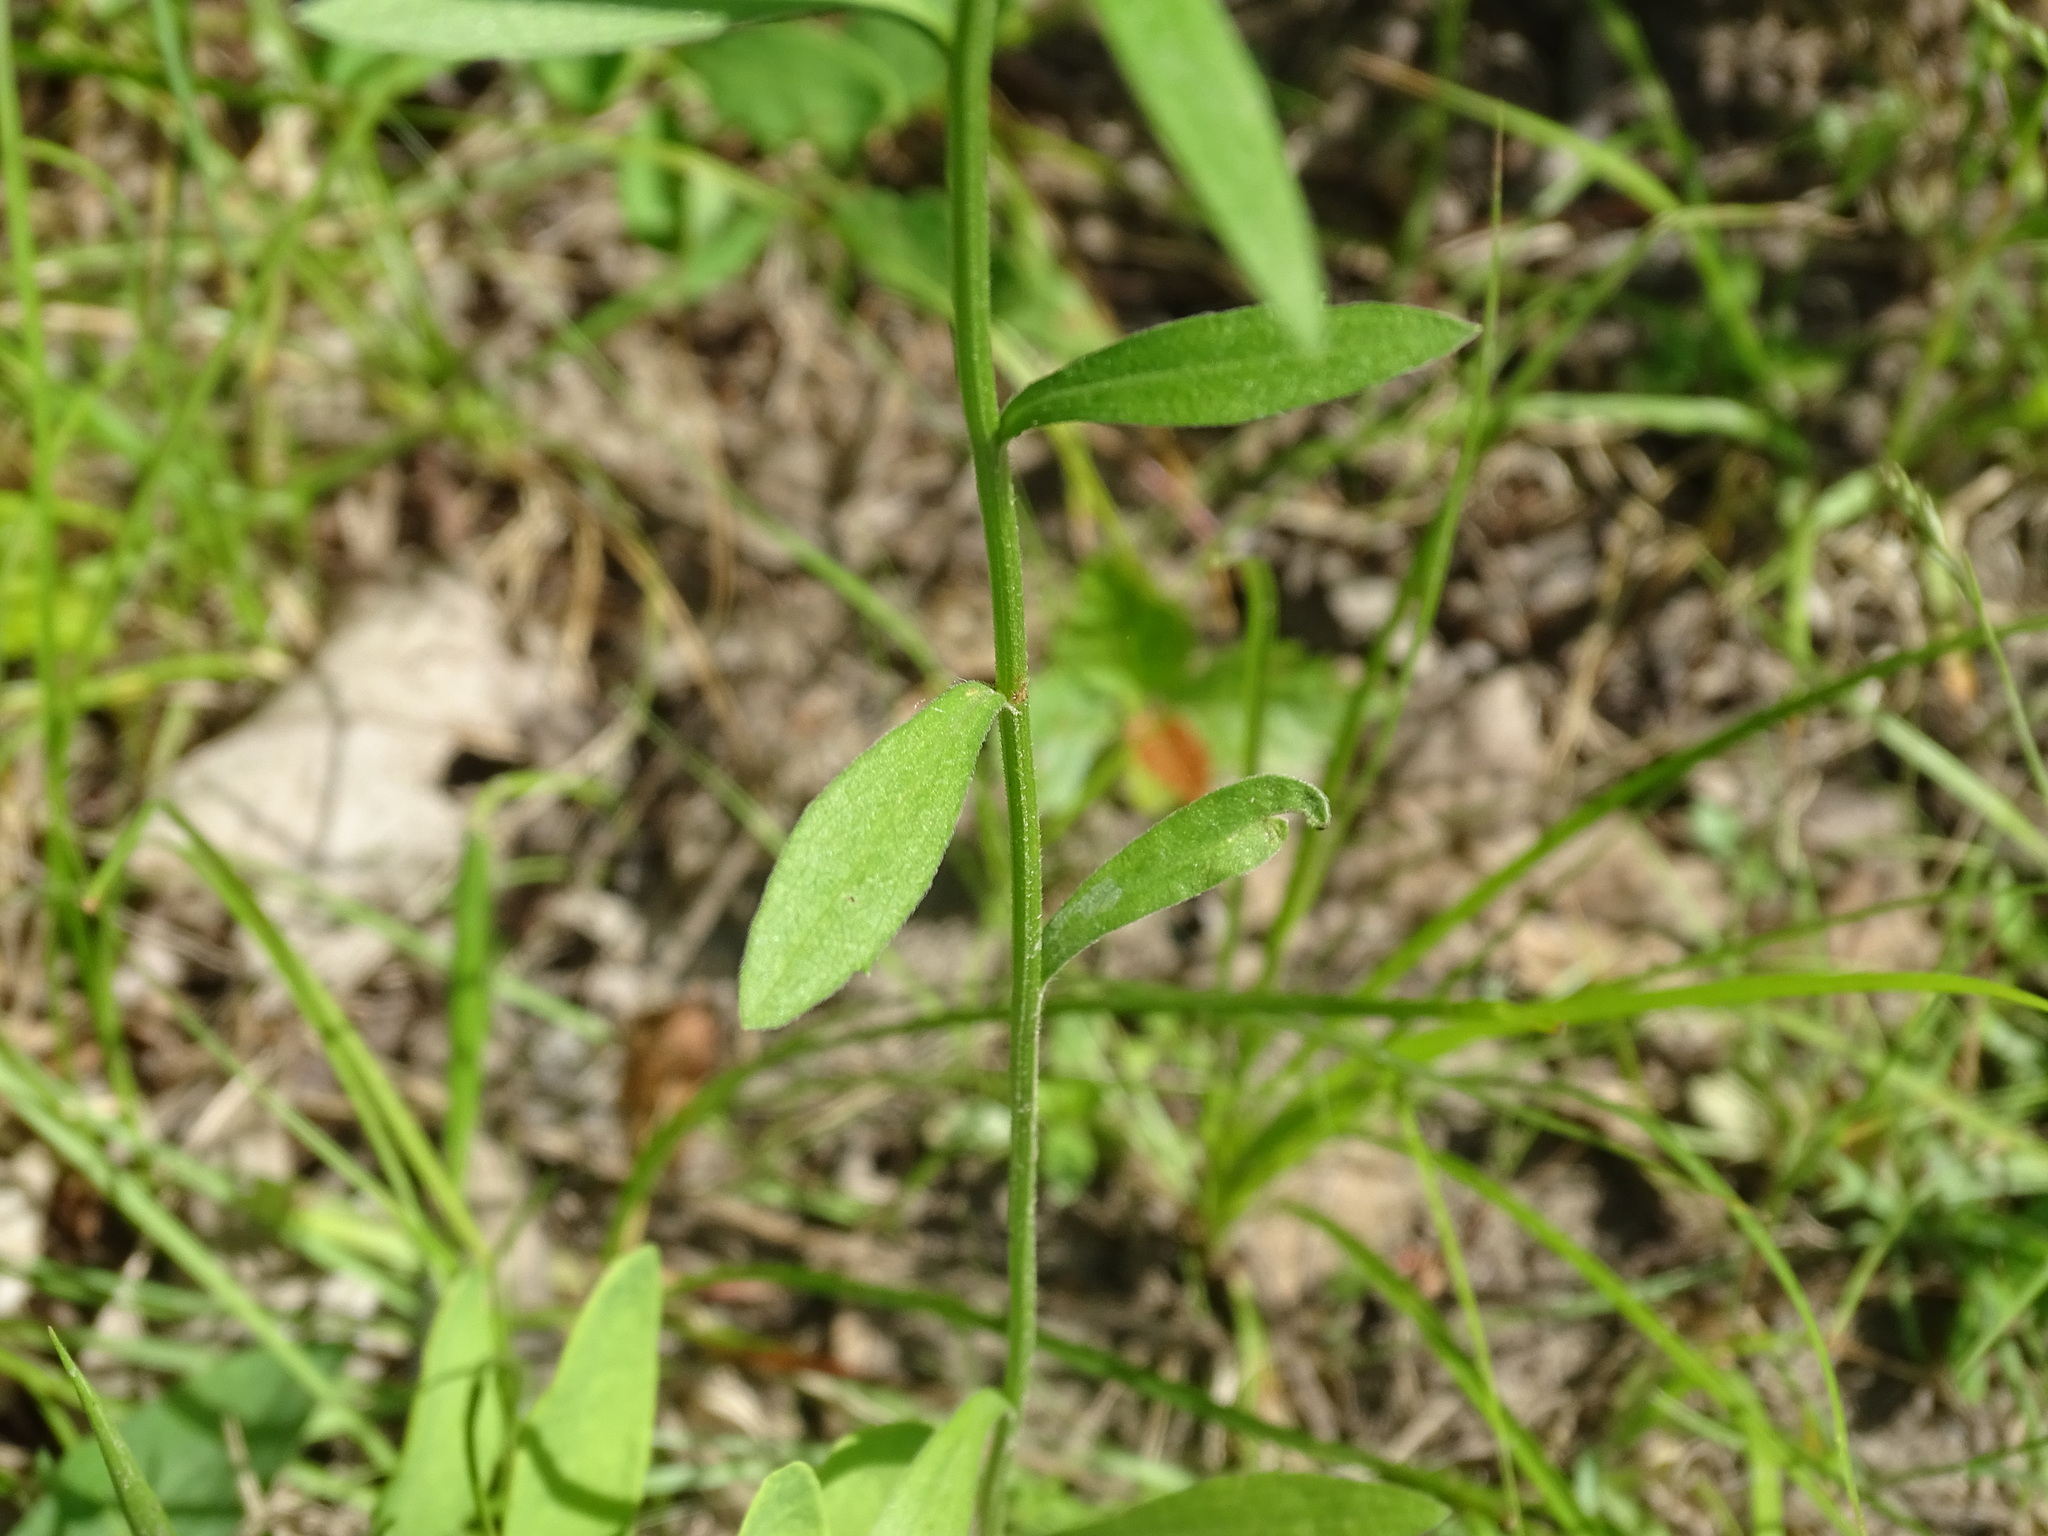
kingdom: Plantae
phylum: Tracheophyta
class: Magnoliopsida
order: Asterales
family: Asteraceae
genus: Erigeron
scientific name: Erigeron strigosus
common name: Common eastern fleabane
